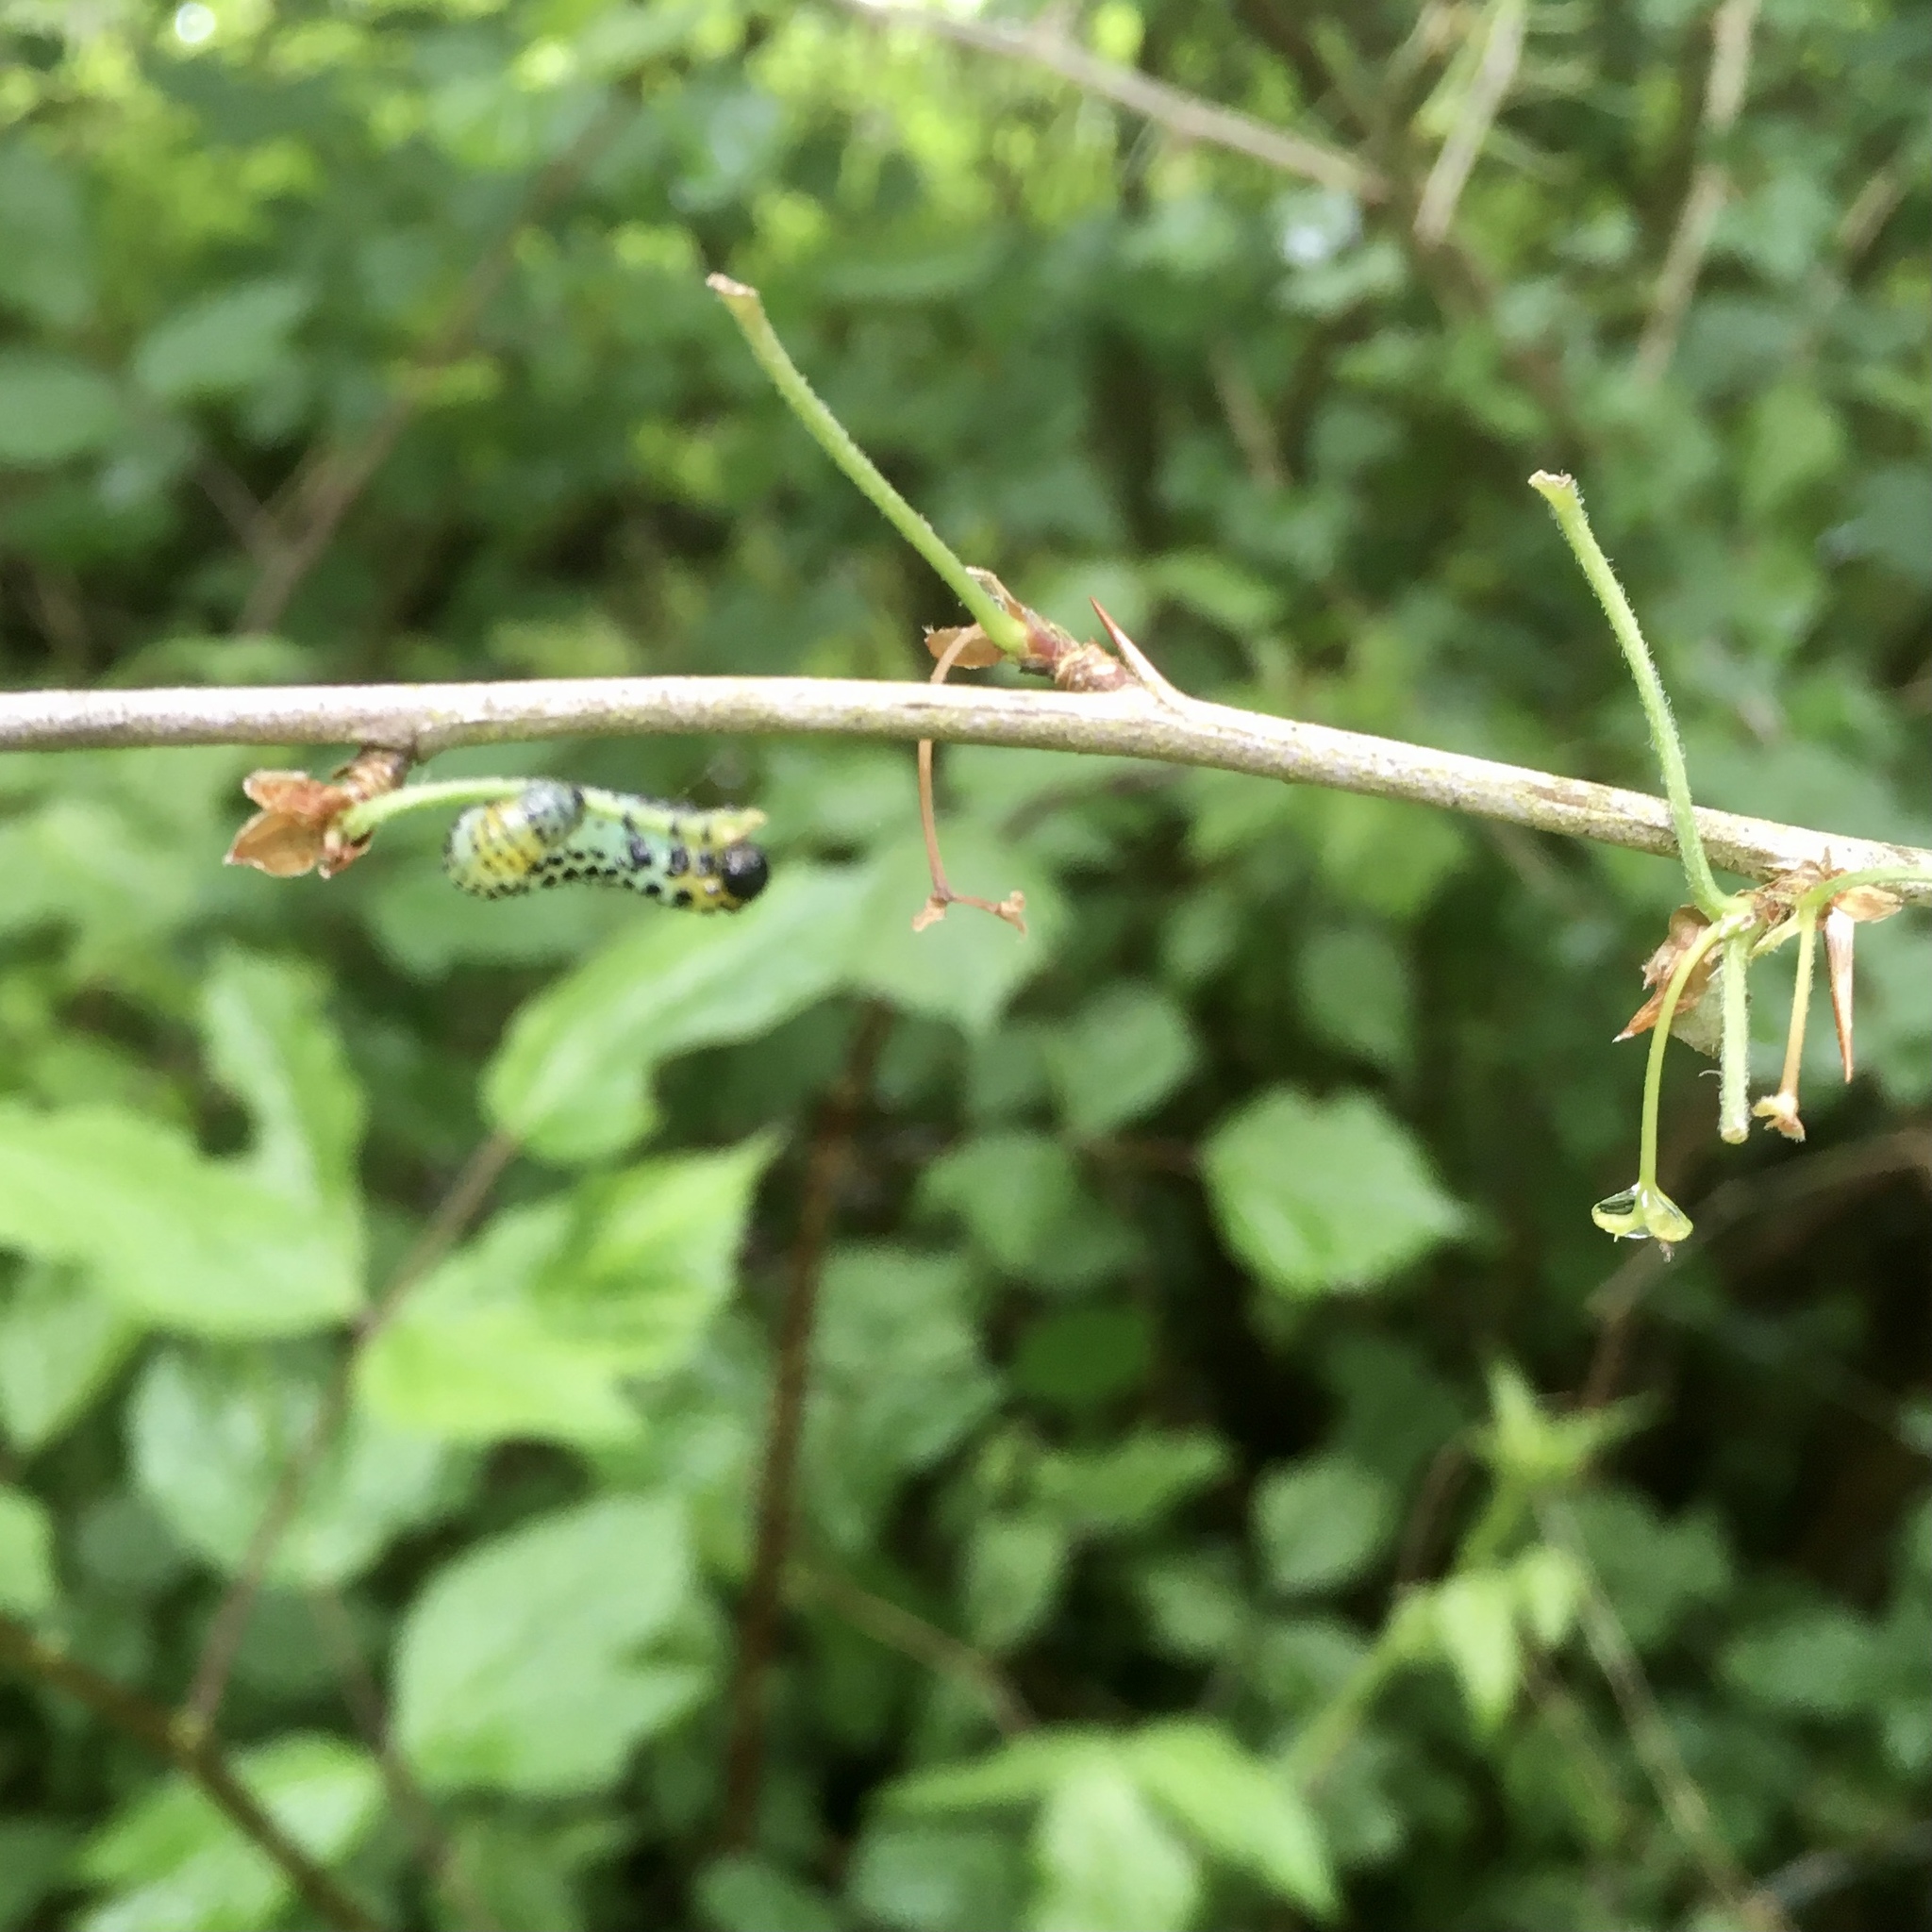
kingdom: Animalia
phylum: Arthropoda
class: Insecta
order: Hymenoptera
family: Tenthredinidae
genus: Nematus
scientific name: Nematus ribesii
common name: Imported currantworm
